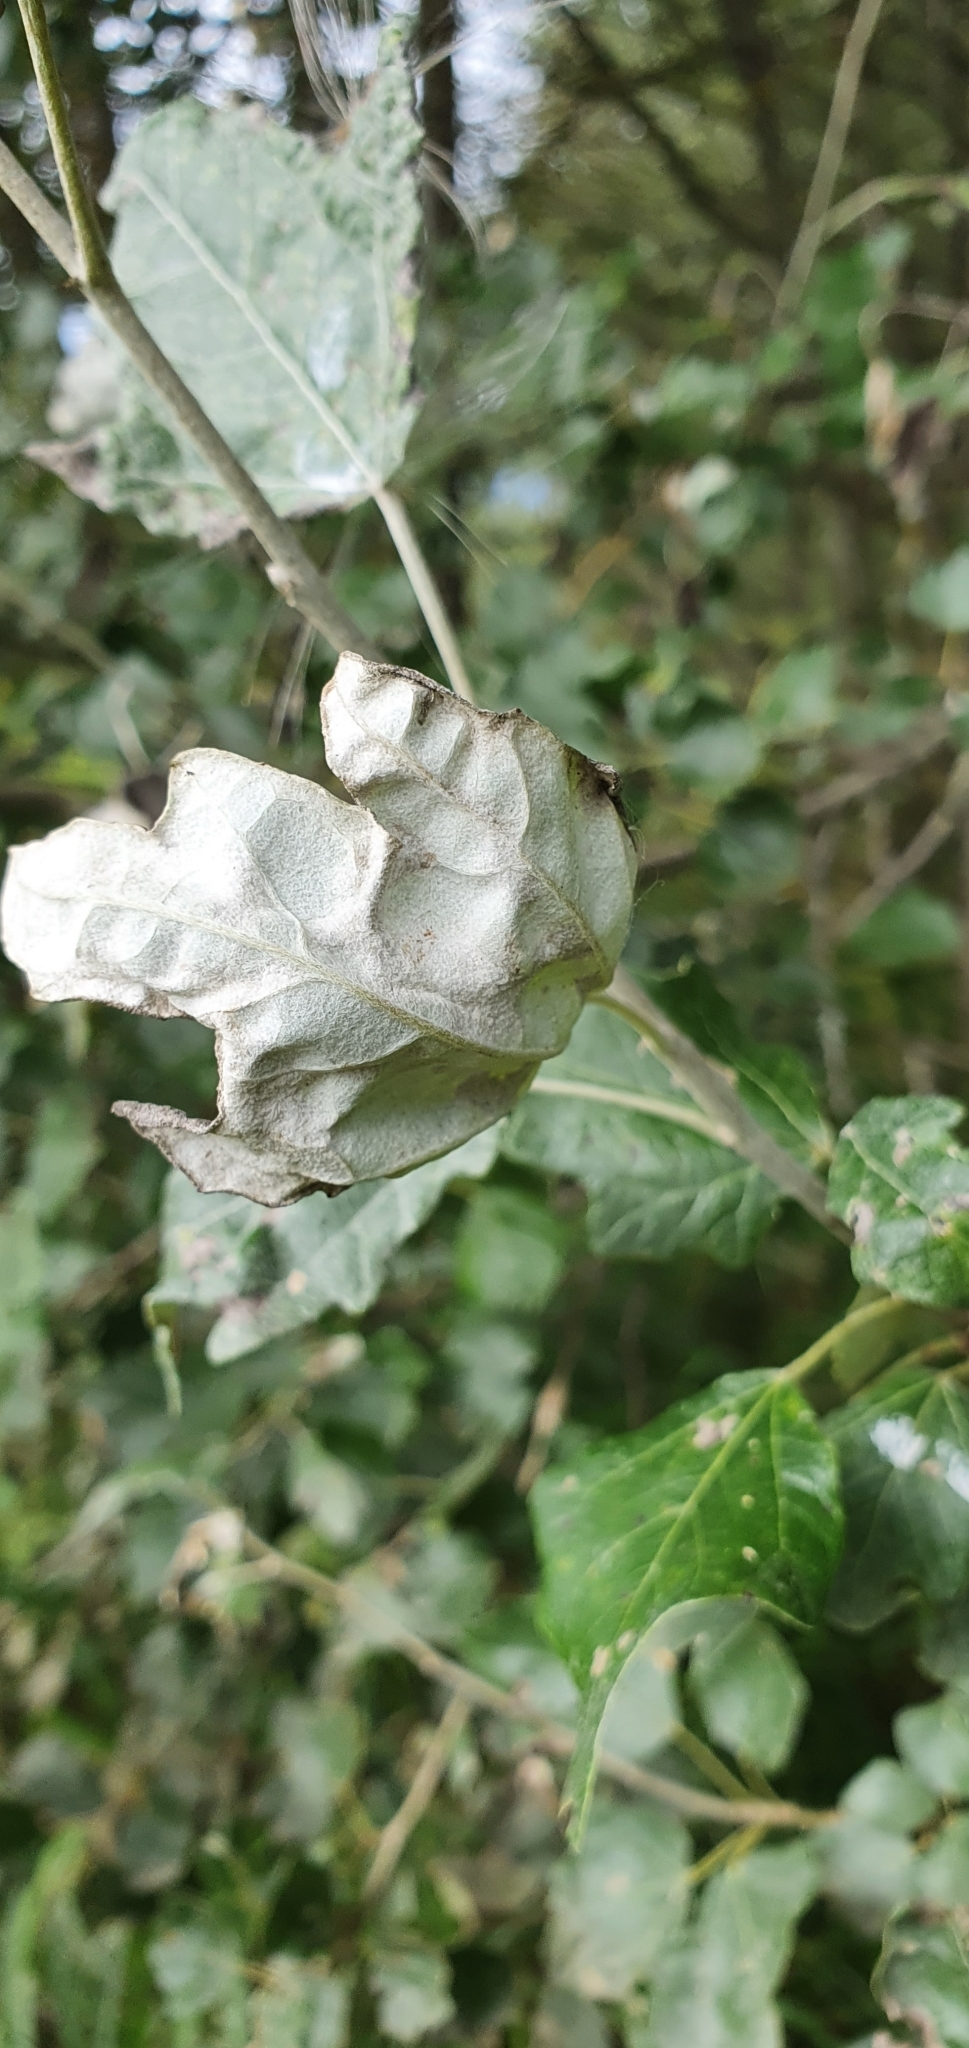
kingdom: Plantae
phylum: Tracheophyta
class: Magnoliopsida
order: Malpighiales
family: Salicaceae
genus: Populus
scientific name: Populus alba
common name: White poplar
